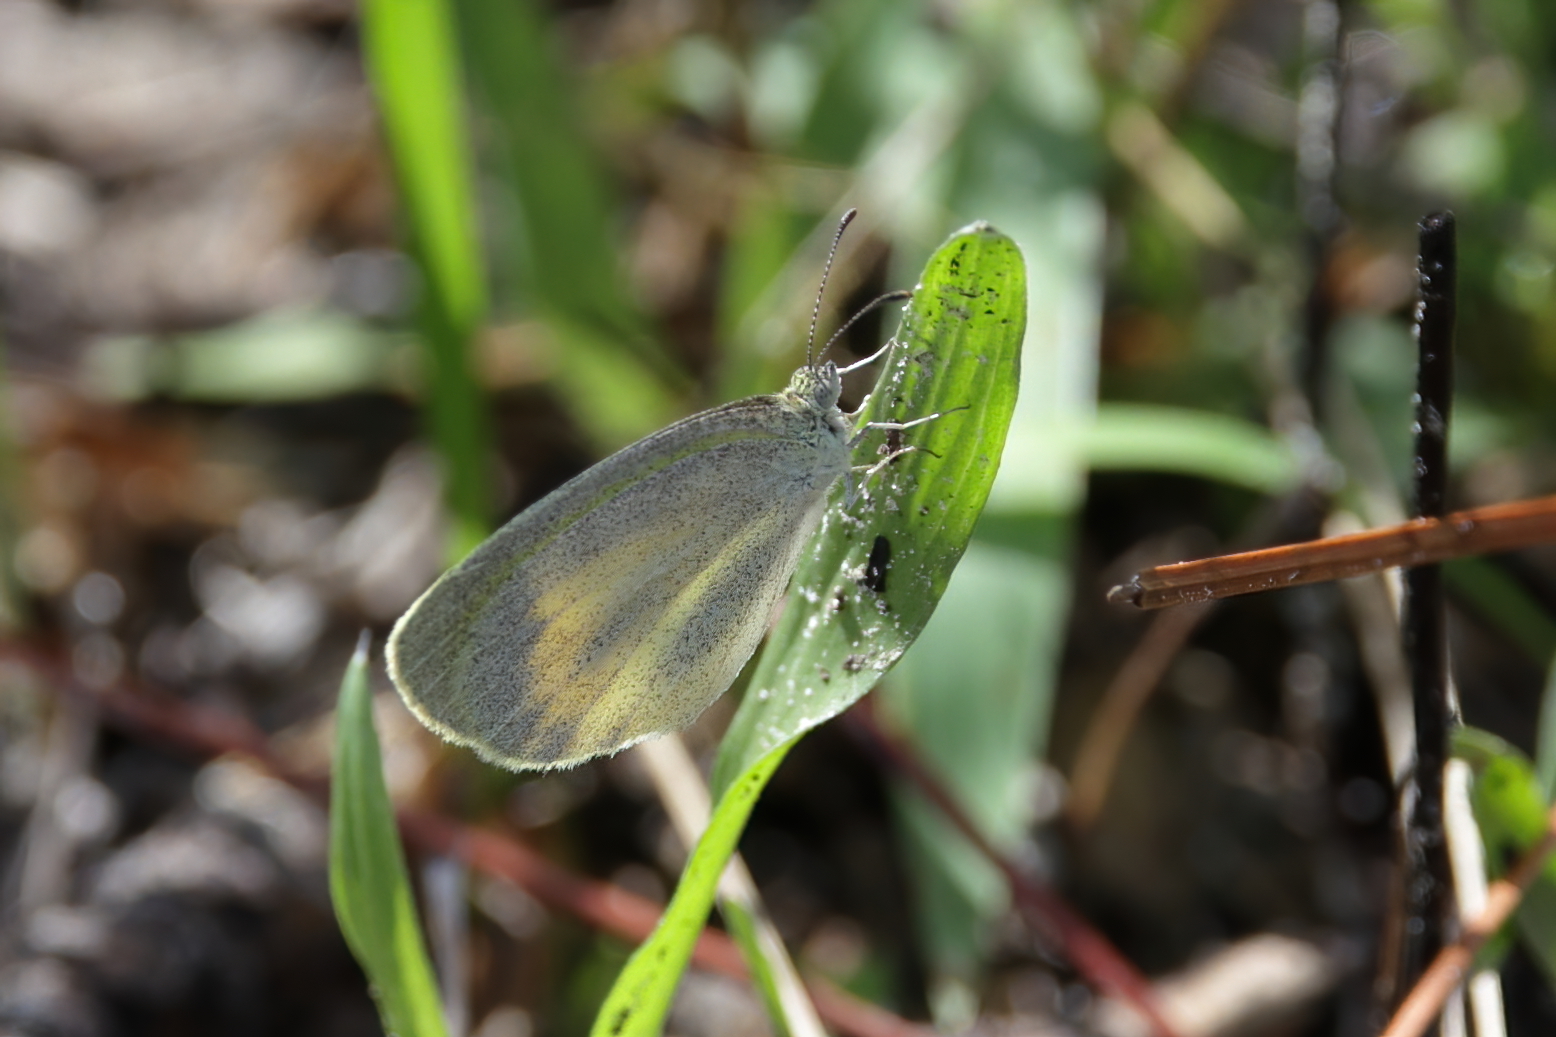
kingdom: Animalia
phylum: Arthropoda
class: Insecta
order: Lepidoptera
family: Pieridae
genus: Eurema
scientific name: Eurema daira
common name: Barred sulphur
